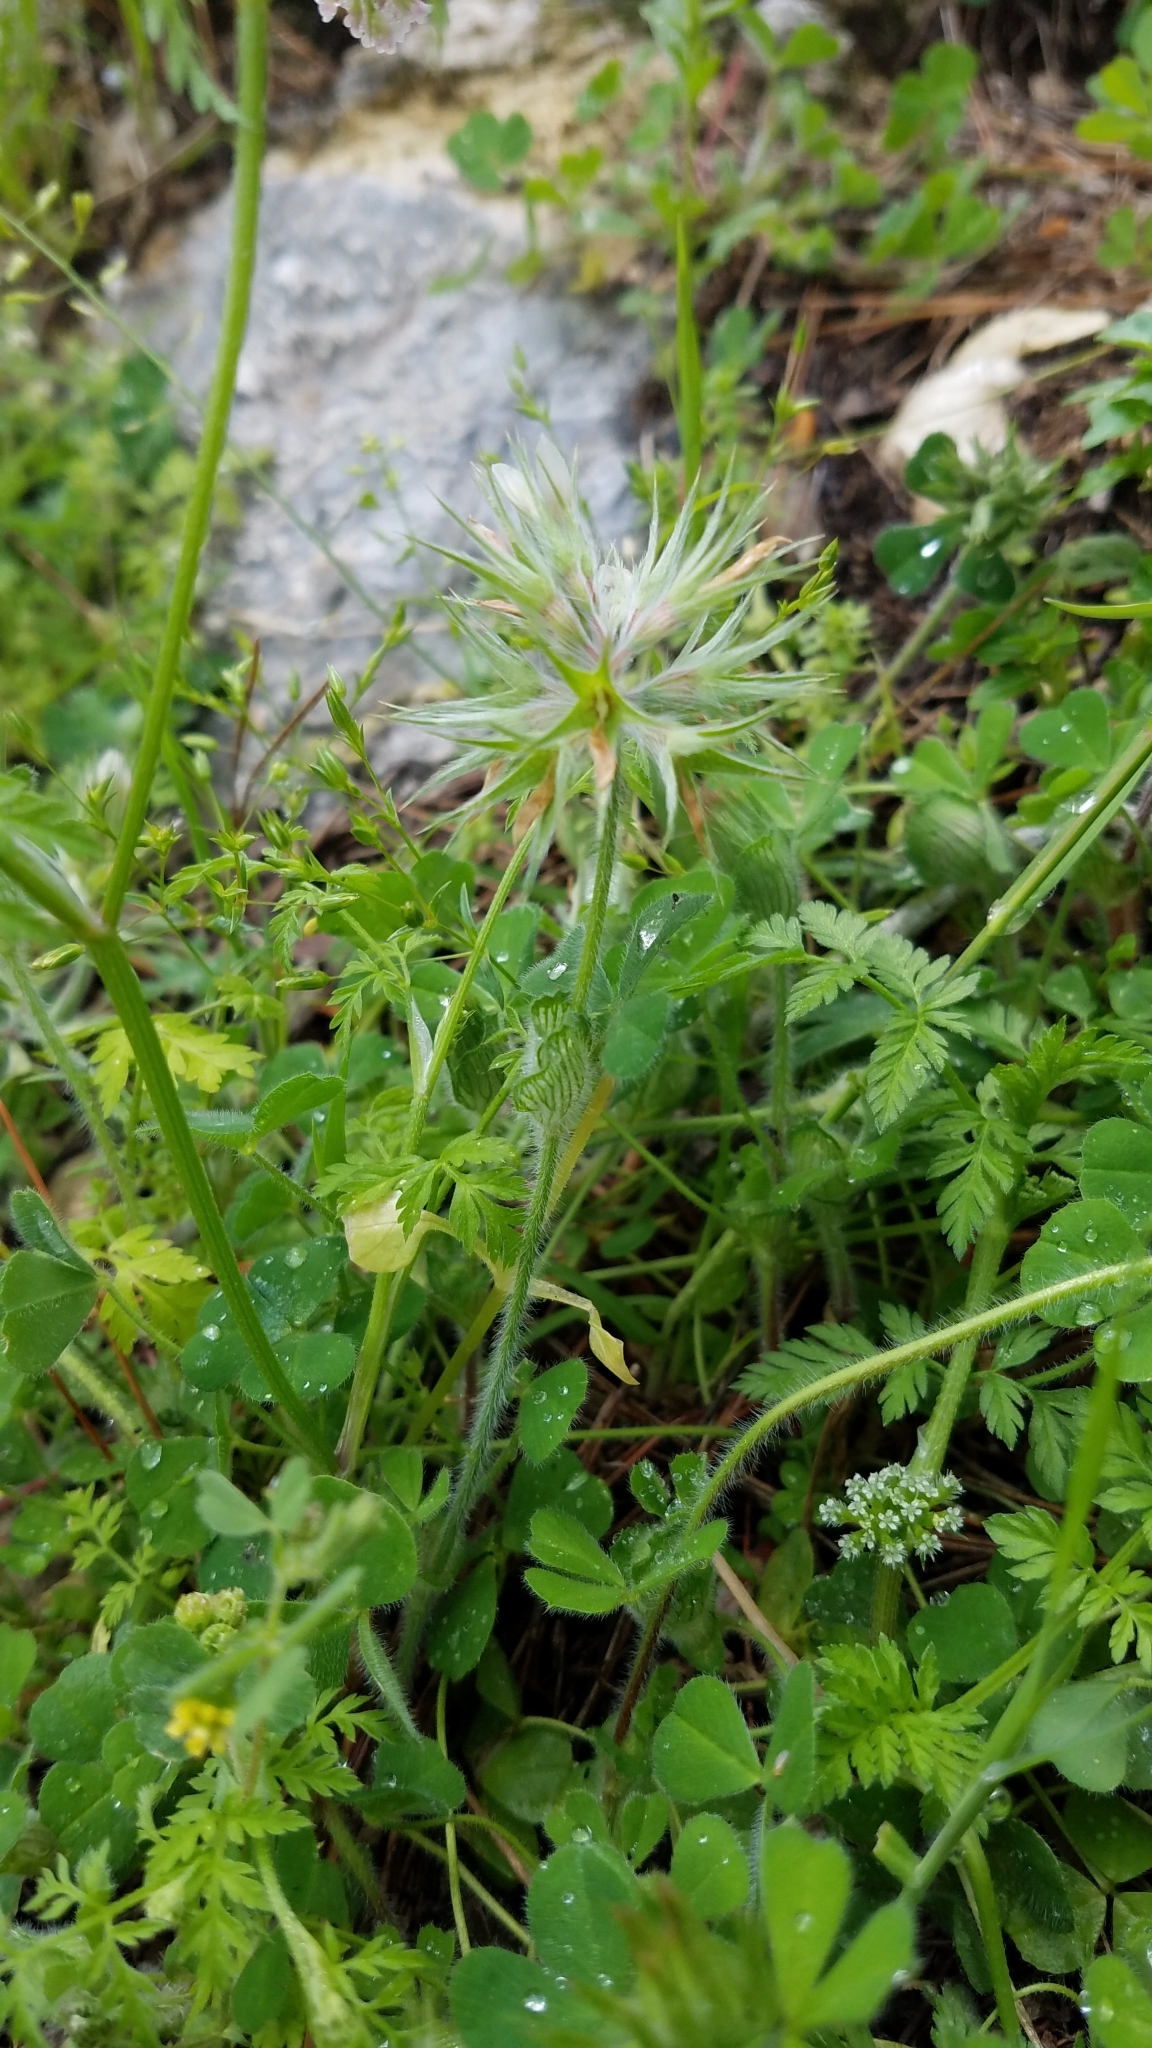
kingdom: Plantae
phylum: Tracheophyta
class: Magnoliopsida
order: Fabales
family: Fabaceae
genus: Trifolium
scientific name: Trifolium stellatum
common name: Starry clover
